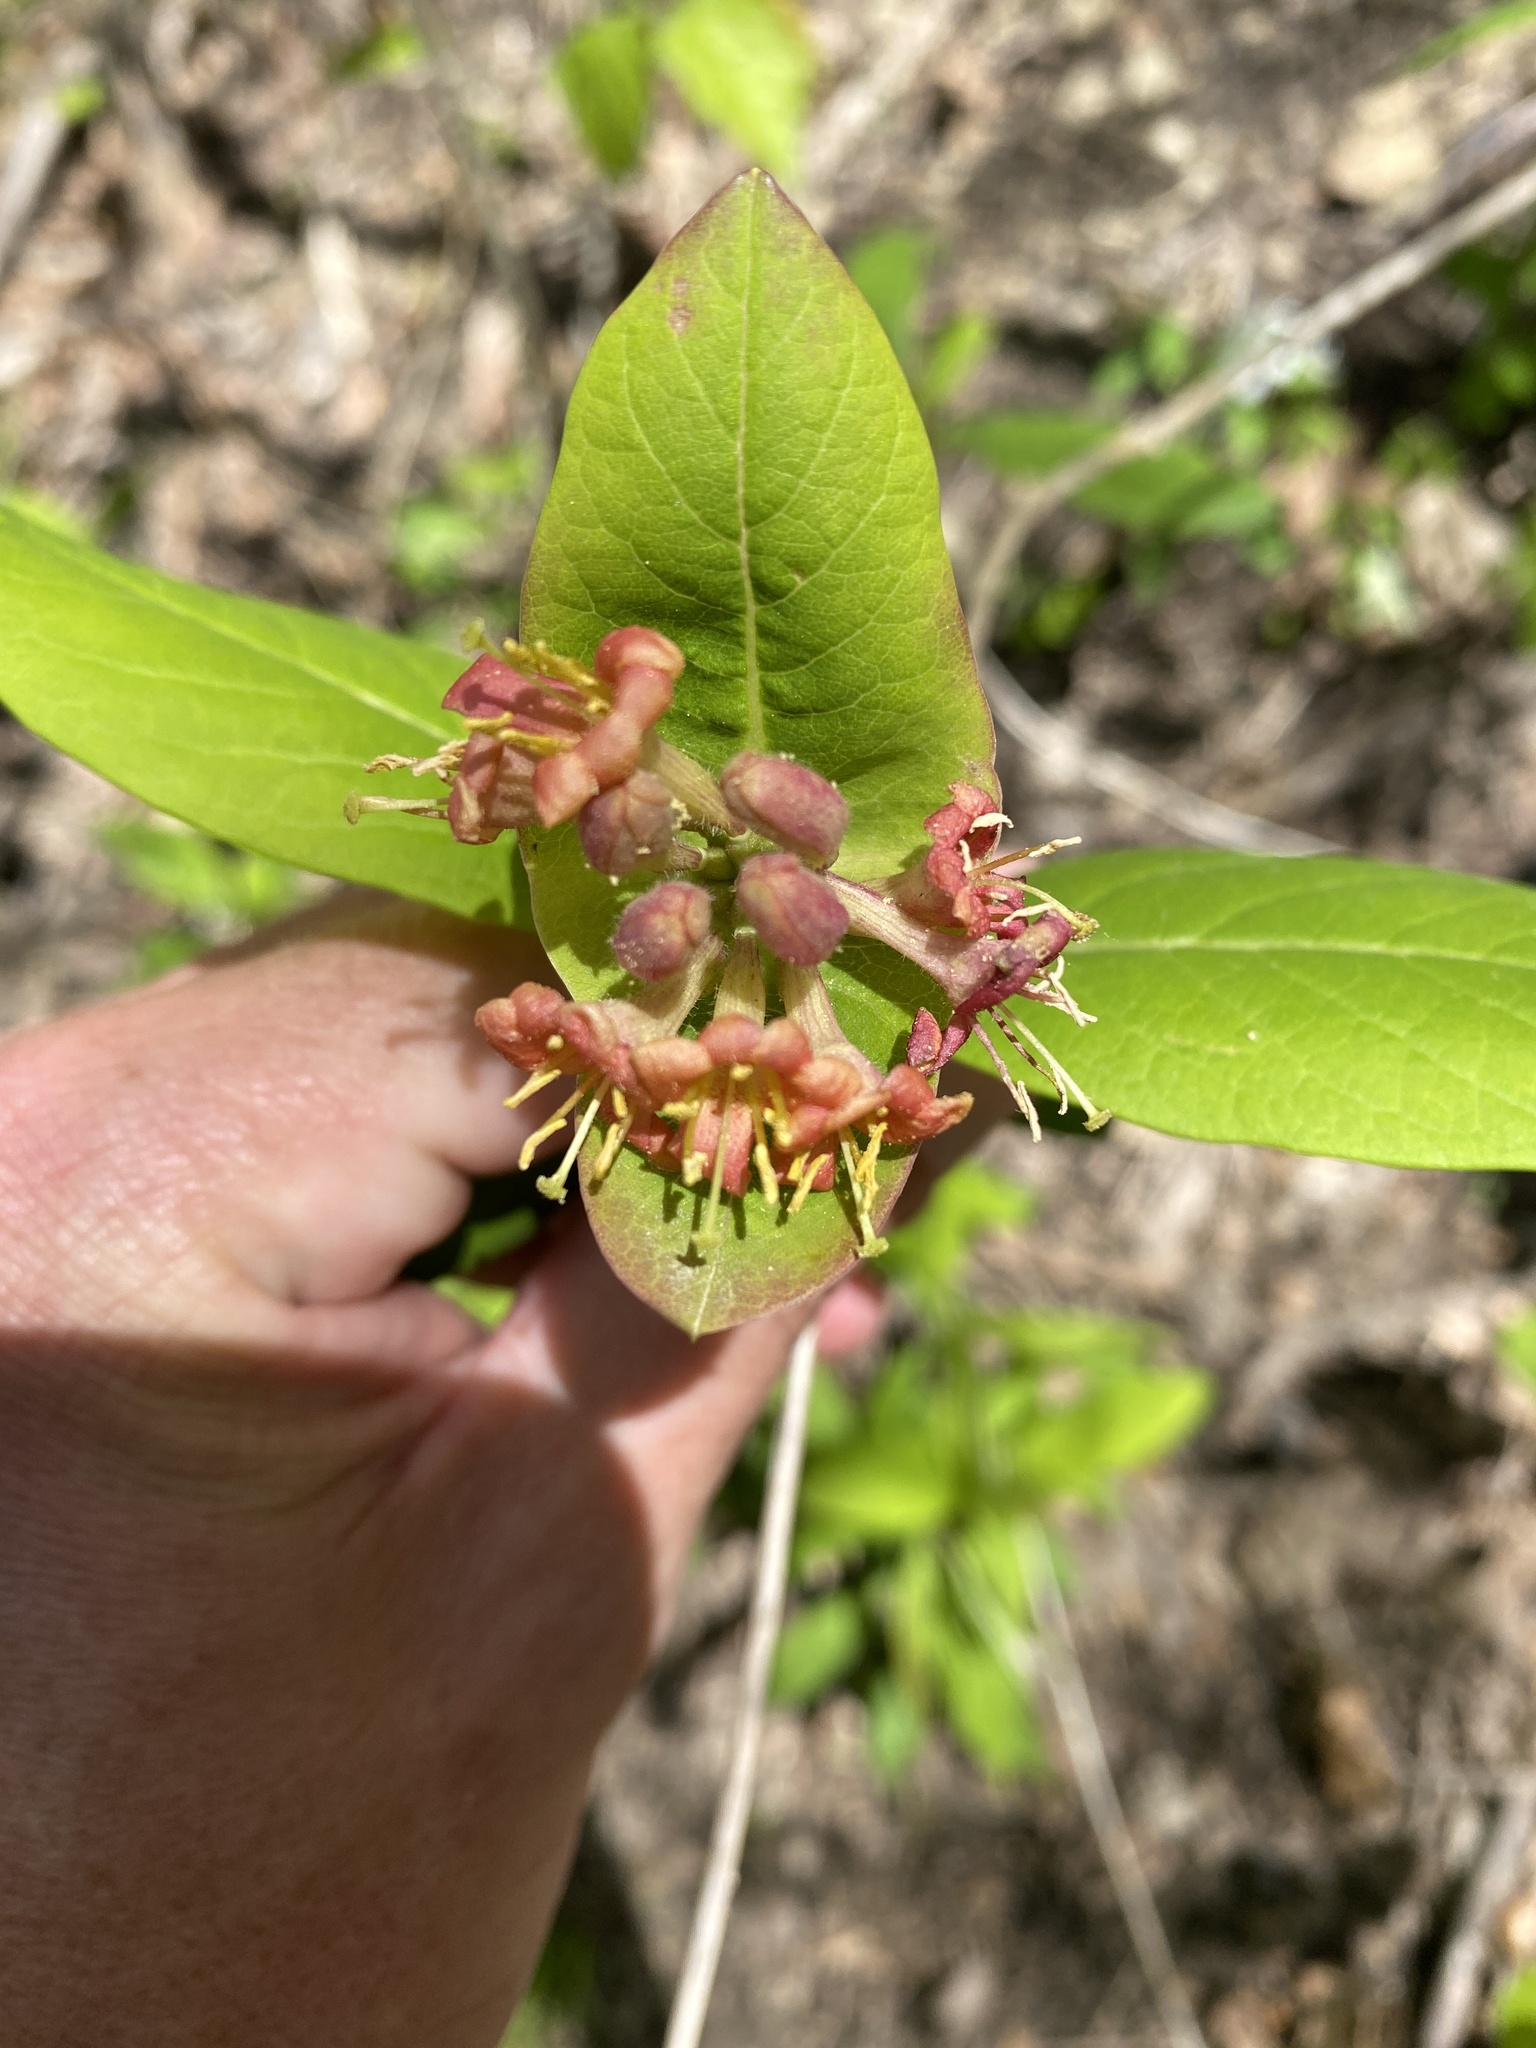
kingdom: Plantae
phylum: Tracheophyta
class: Magnoliopsida
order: Dipsacales
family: Caprifoliaceae
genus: Lonicera
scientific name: Lonicera dioica
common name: Limber honeysuckle
